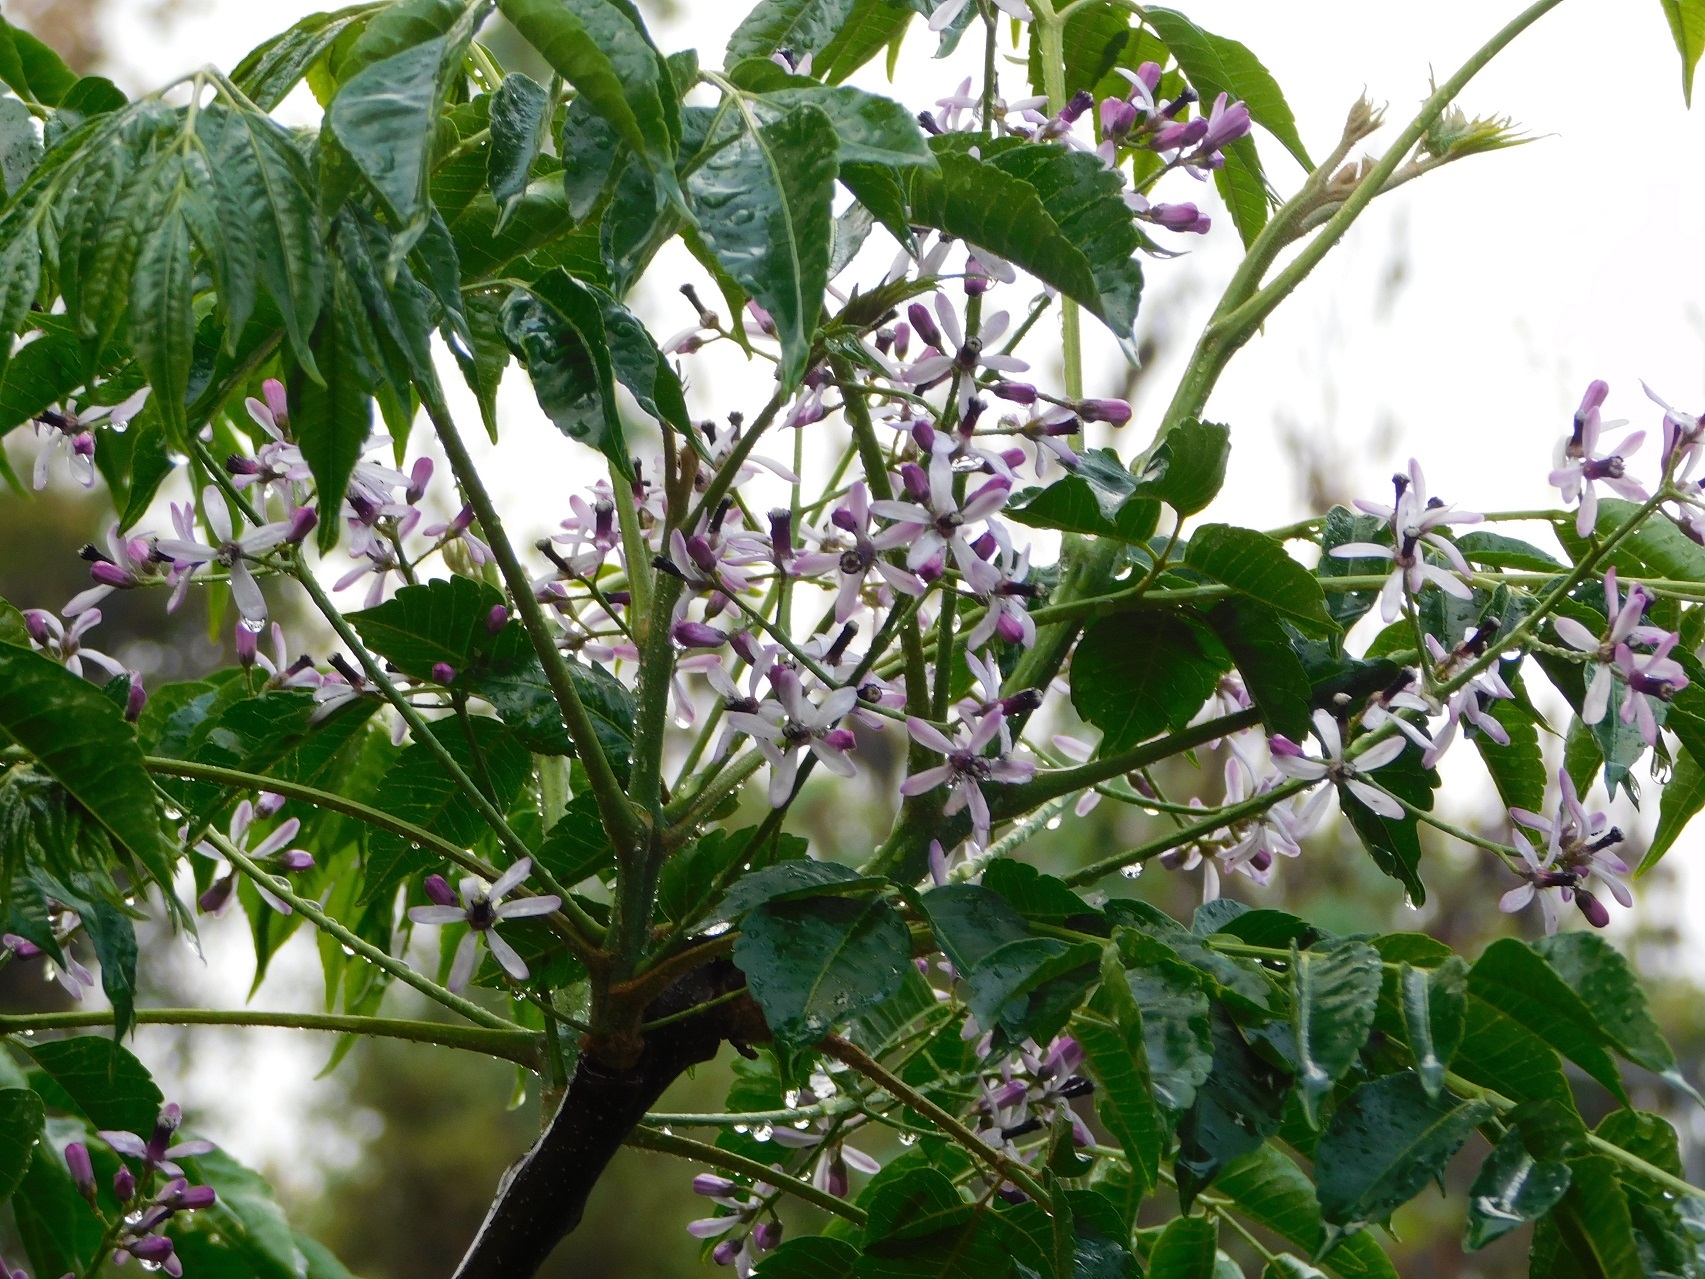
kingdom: Plantae
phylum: Tracheophyta
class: Magnoliopsida
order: Sapindales
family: Meliaceae
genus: Melia
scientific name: Melia azedarach
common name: Chinaberrytree
